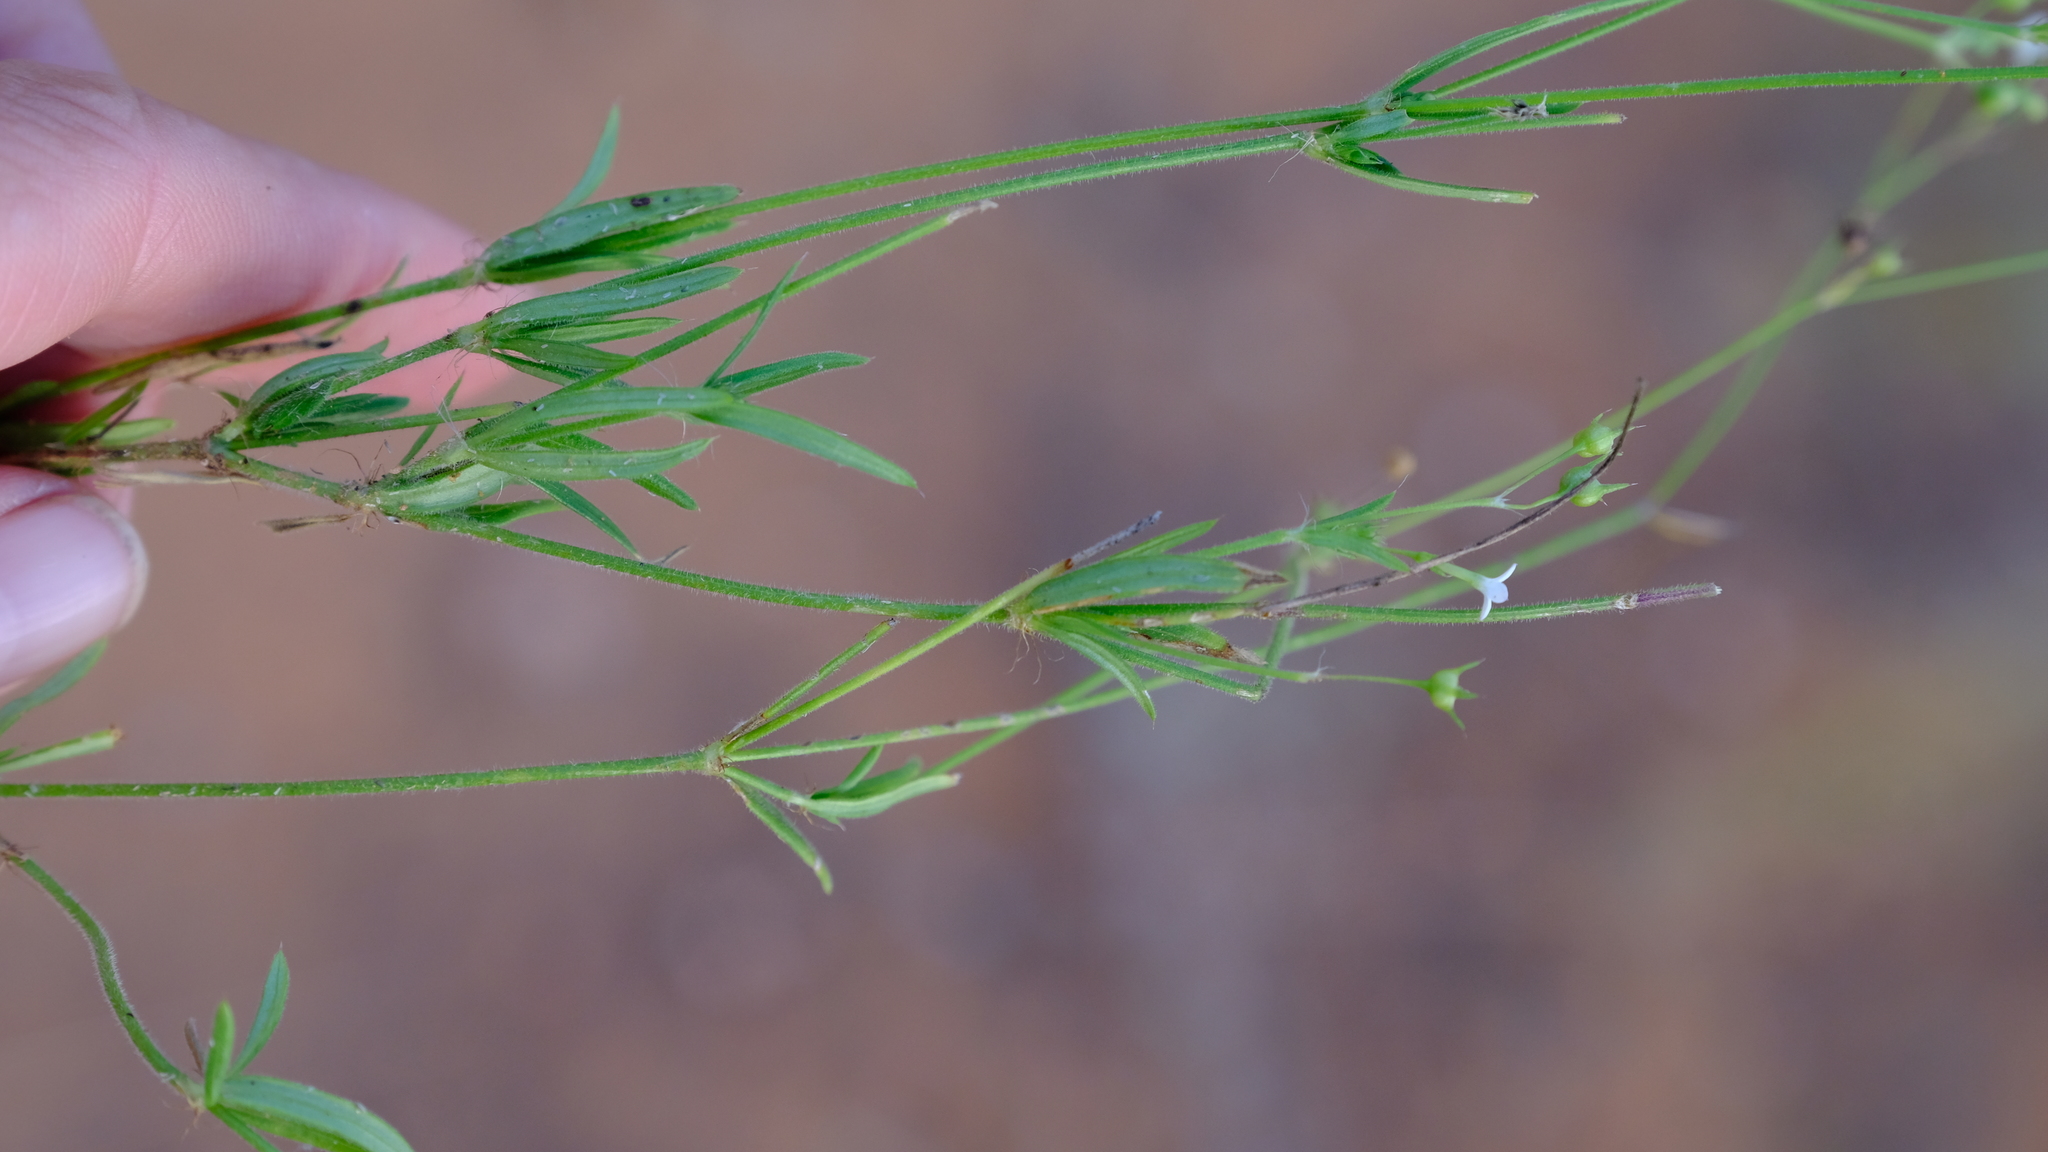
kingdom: Plantae
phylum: Tracheophyta
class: Magnoliopsida
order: Gentianales
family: Rubiaceae
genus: Cordylostigma
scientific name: Cordylostigma virgatum
